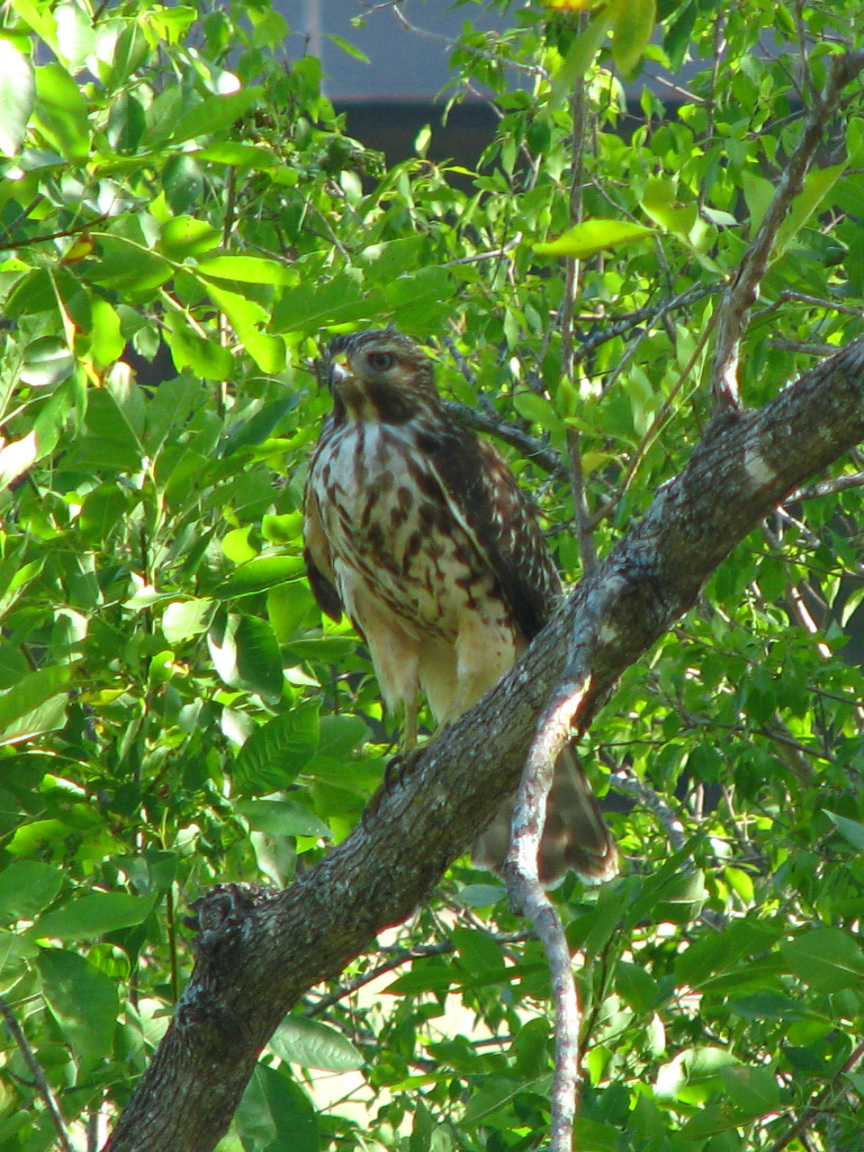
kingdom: Animalia
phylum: Chordata
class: Aves
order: Accipitriformes
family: Accipitridae
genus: Buteo
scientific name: Buteo lineatus
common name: Red-shouldered hawk
